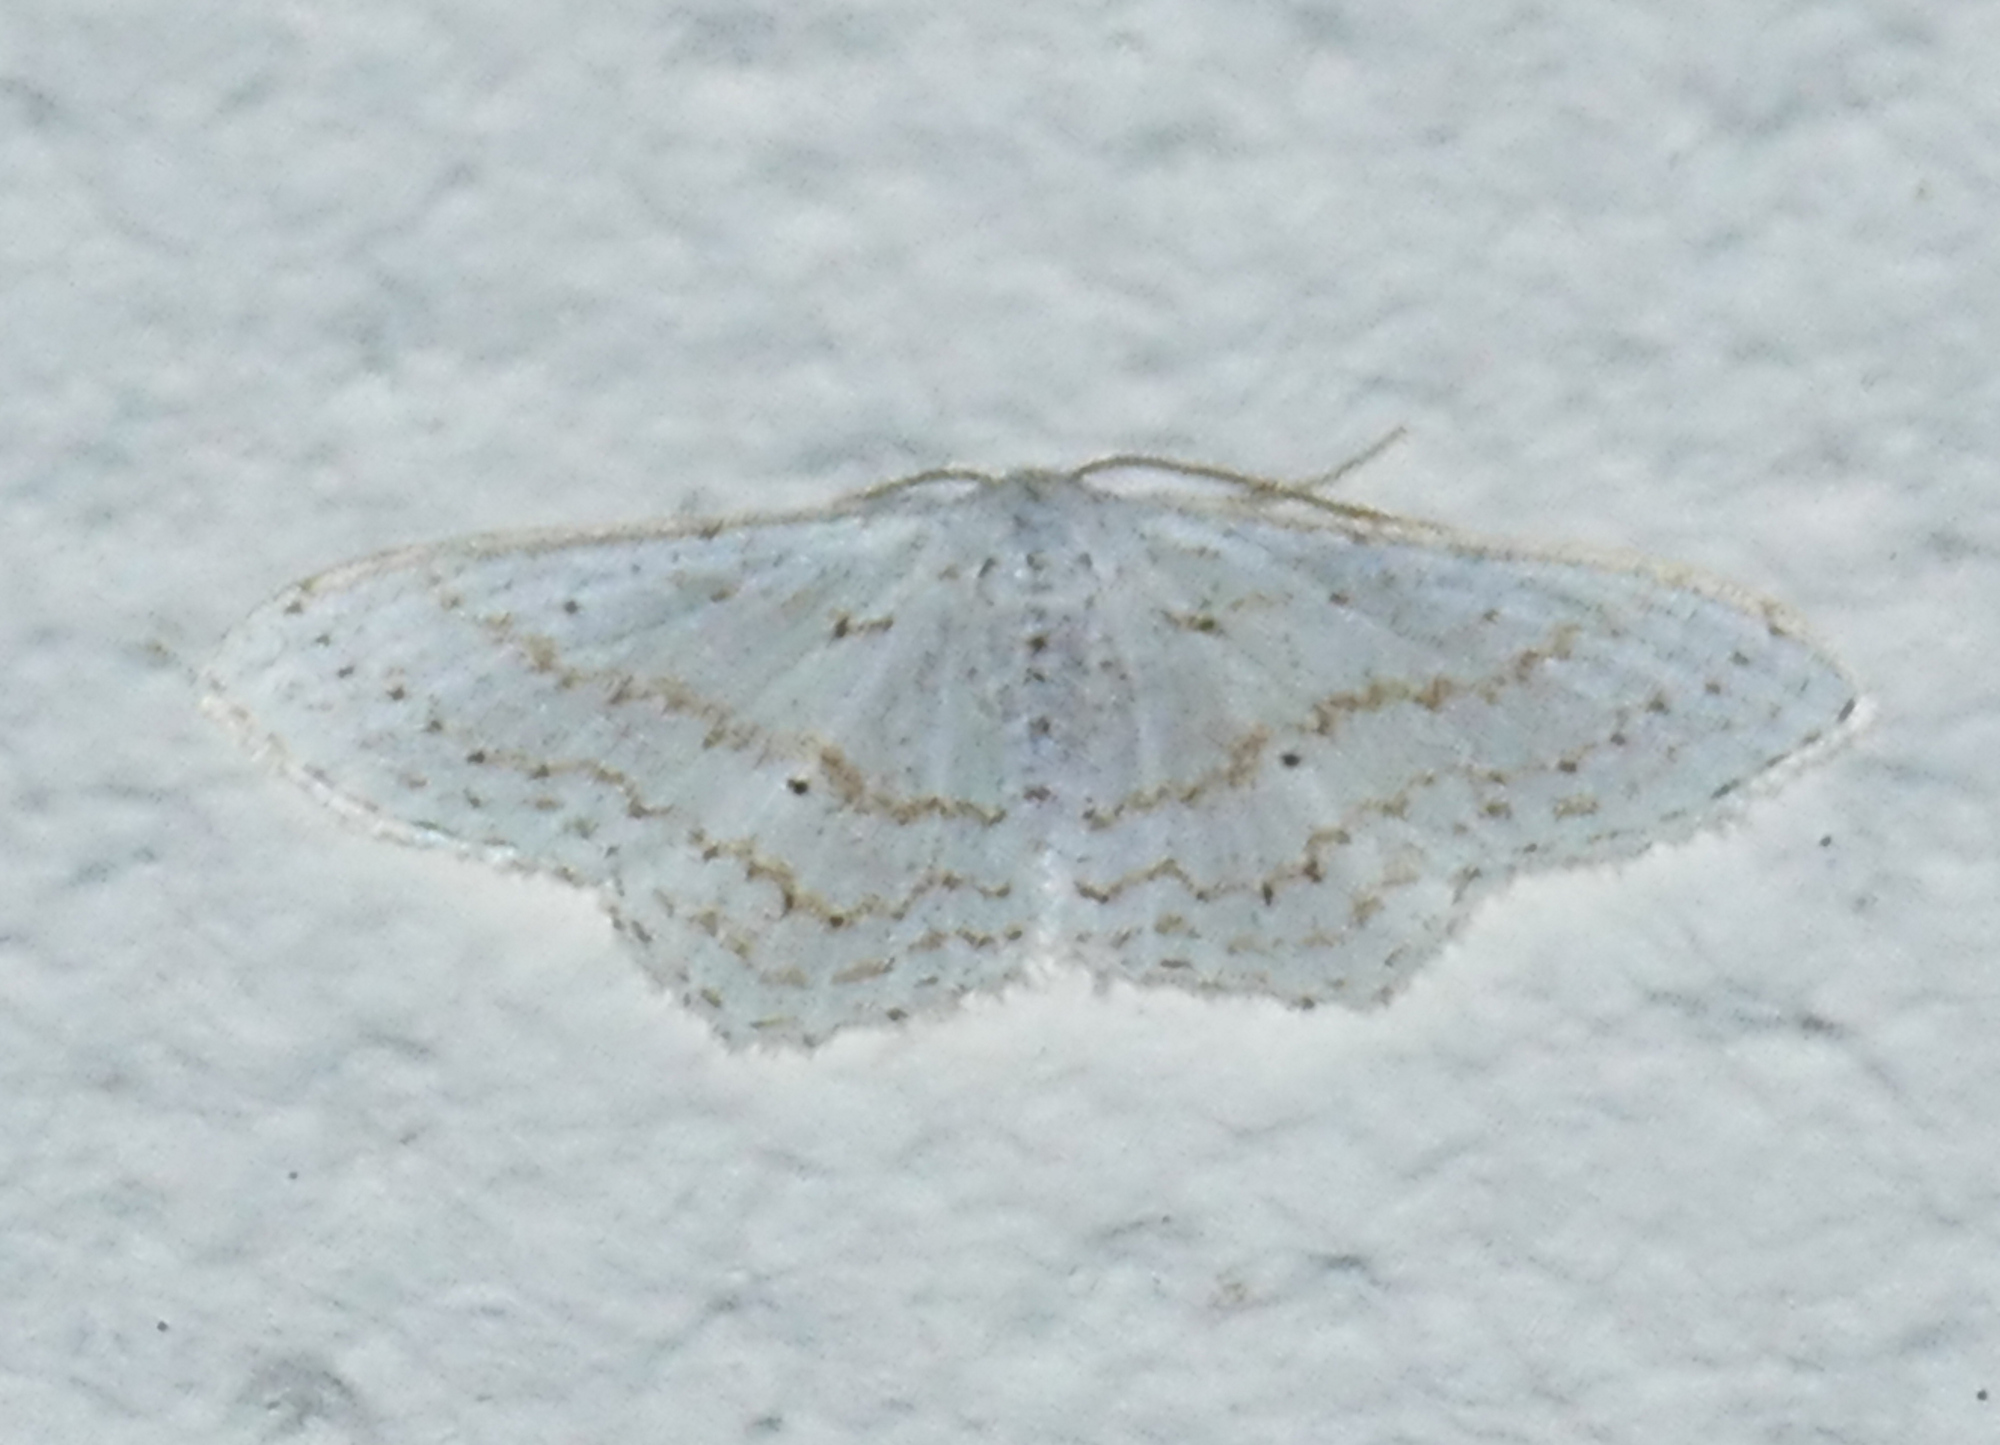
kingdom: Animalia
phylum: Arthropoda
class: Insecta
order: Lepidoptera
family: Geometridae
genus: Idaea
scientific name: Idaea tacturata
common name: Dot-lined wave
